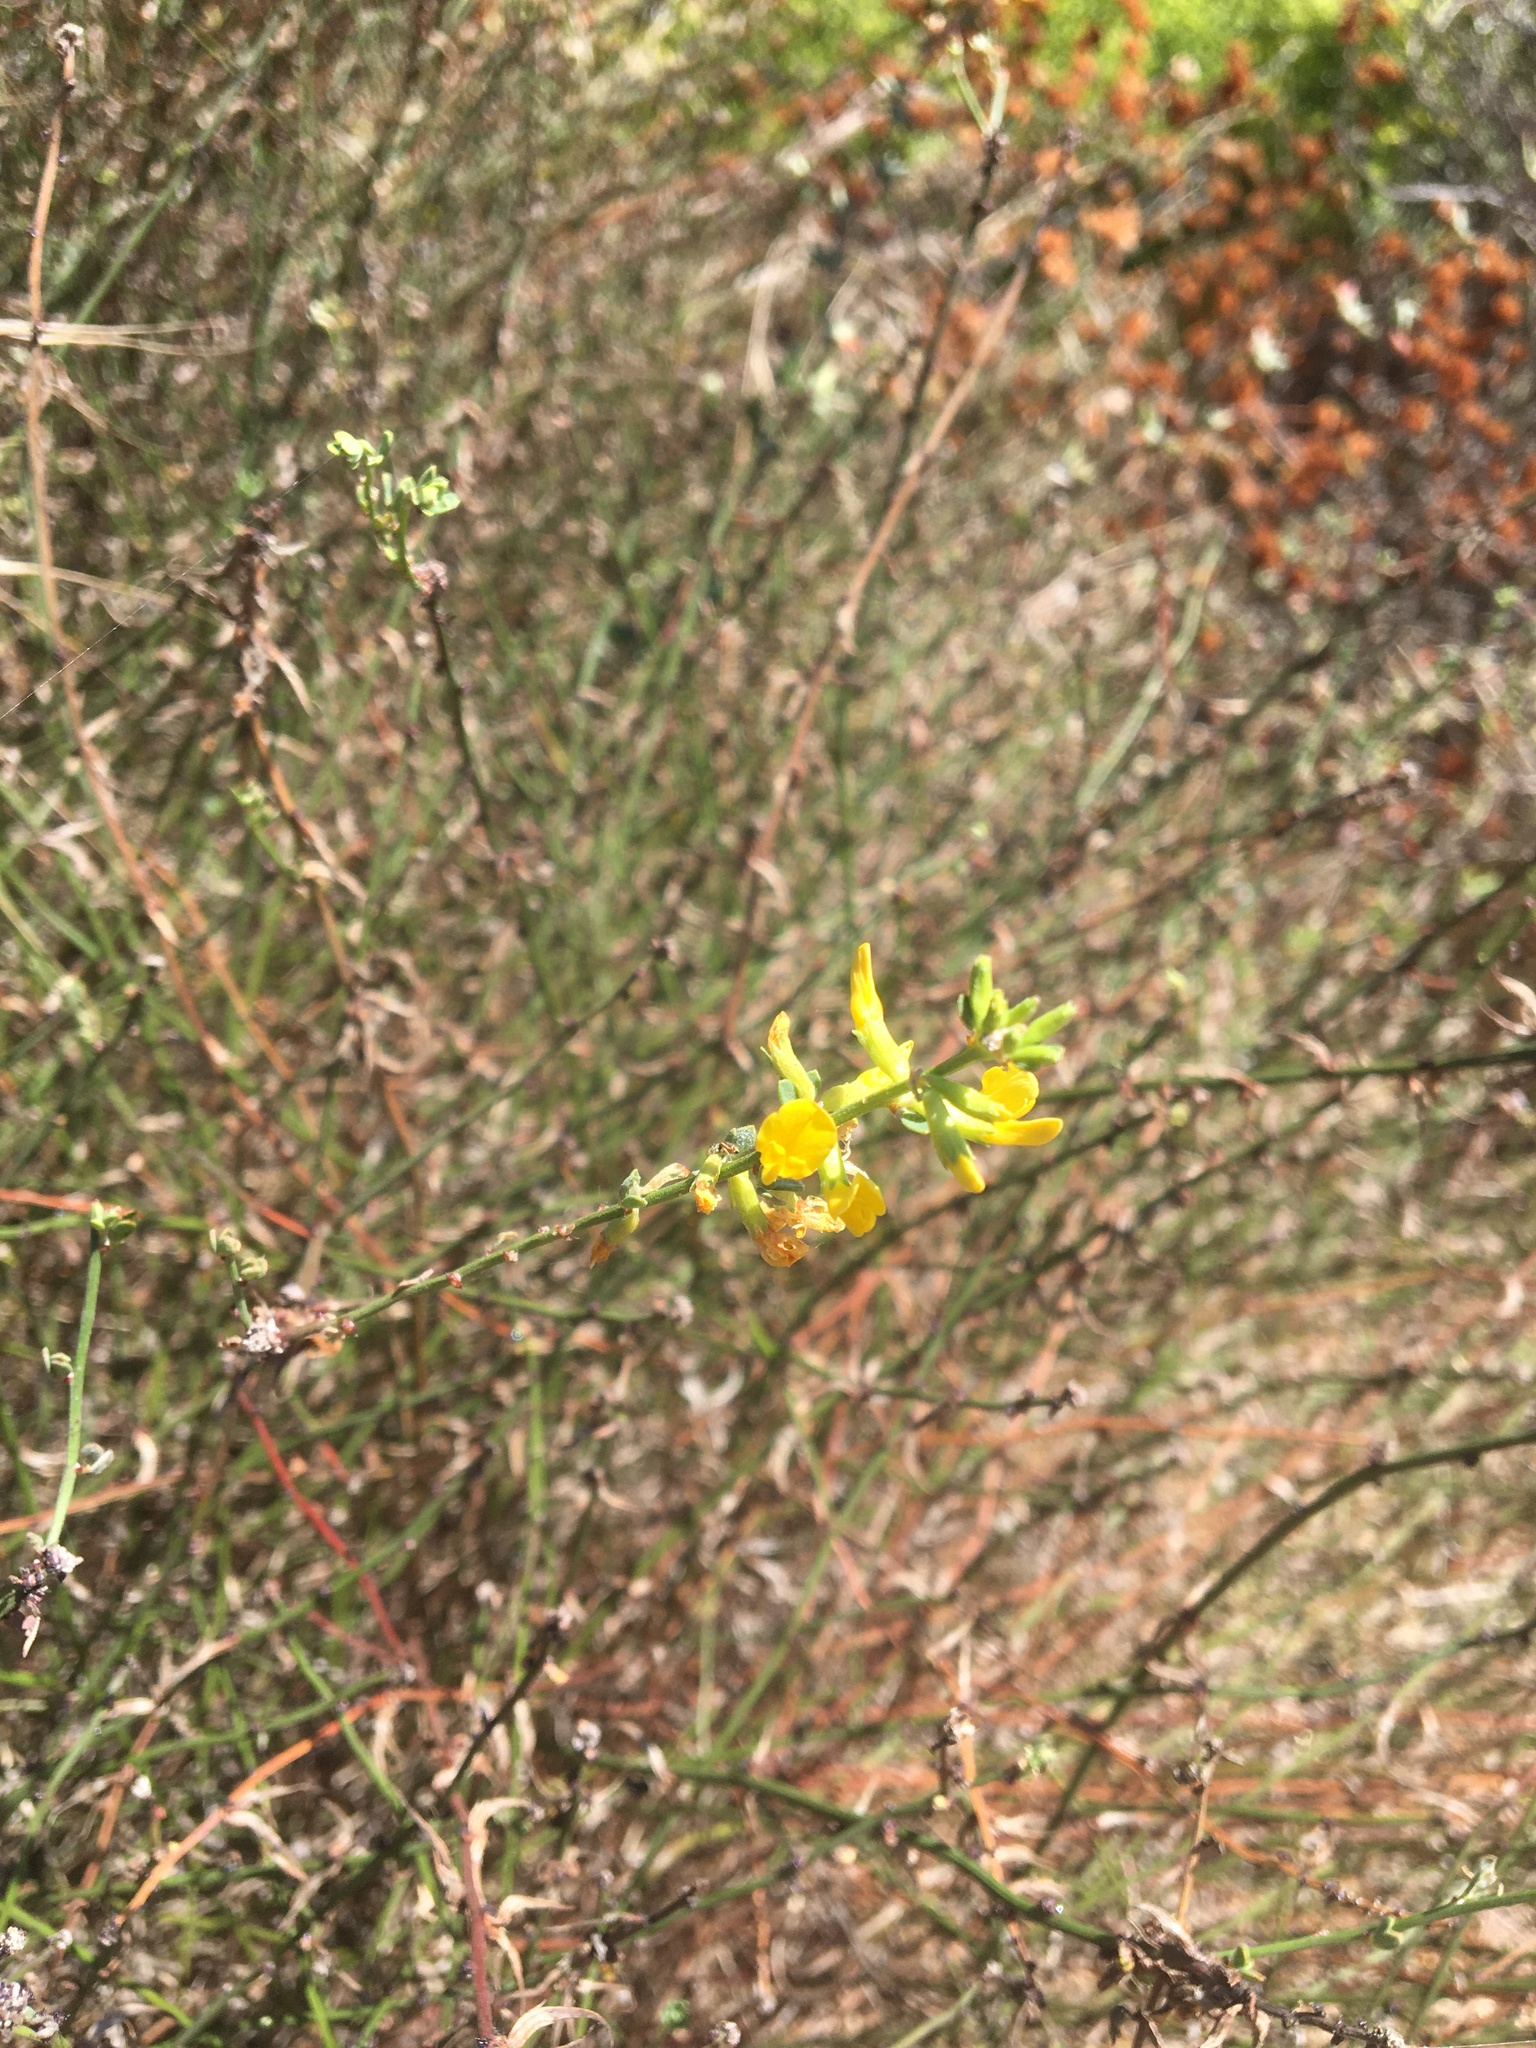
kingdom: Plantae
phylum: Tracheophyta
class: Magnoliopsida
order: Fabales
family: Fabaceae
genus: Acmispon
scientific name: Acmispon glaber
